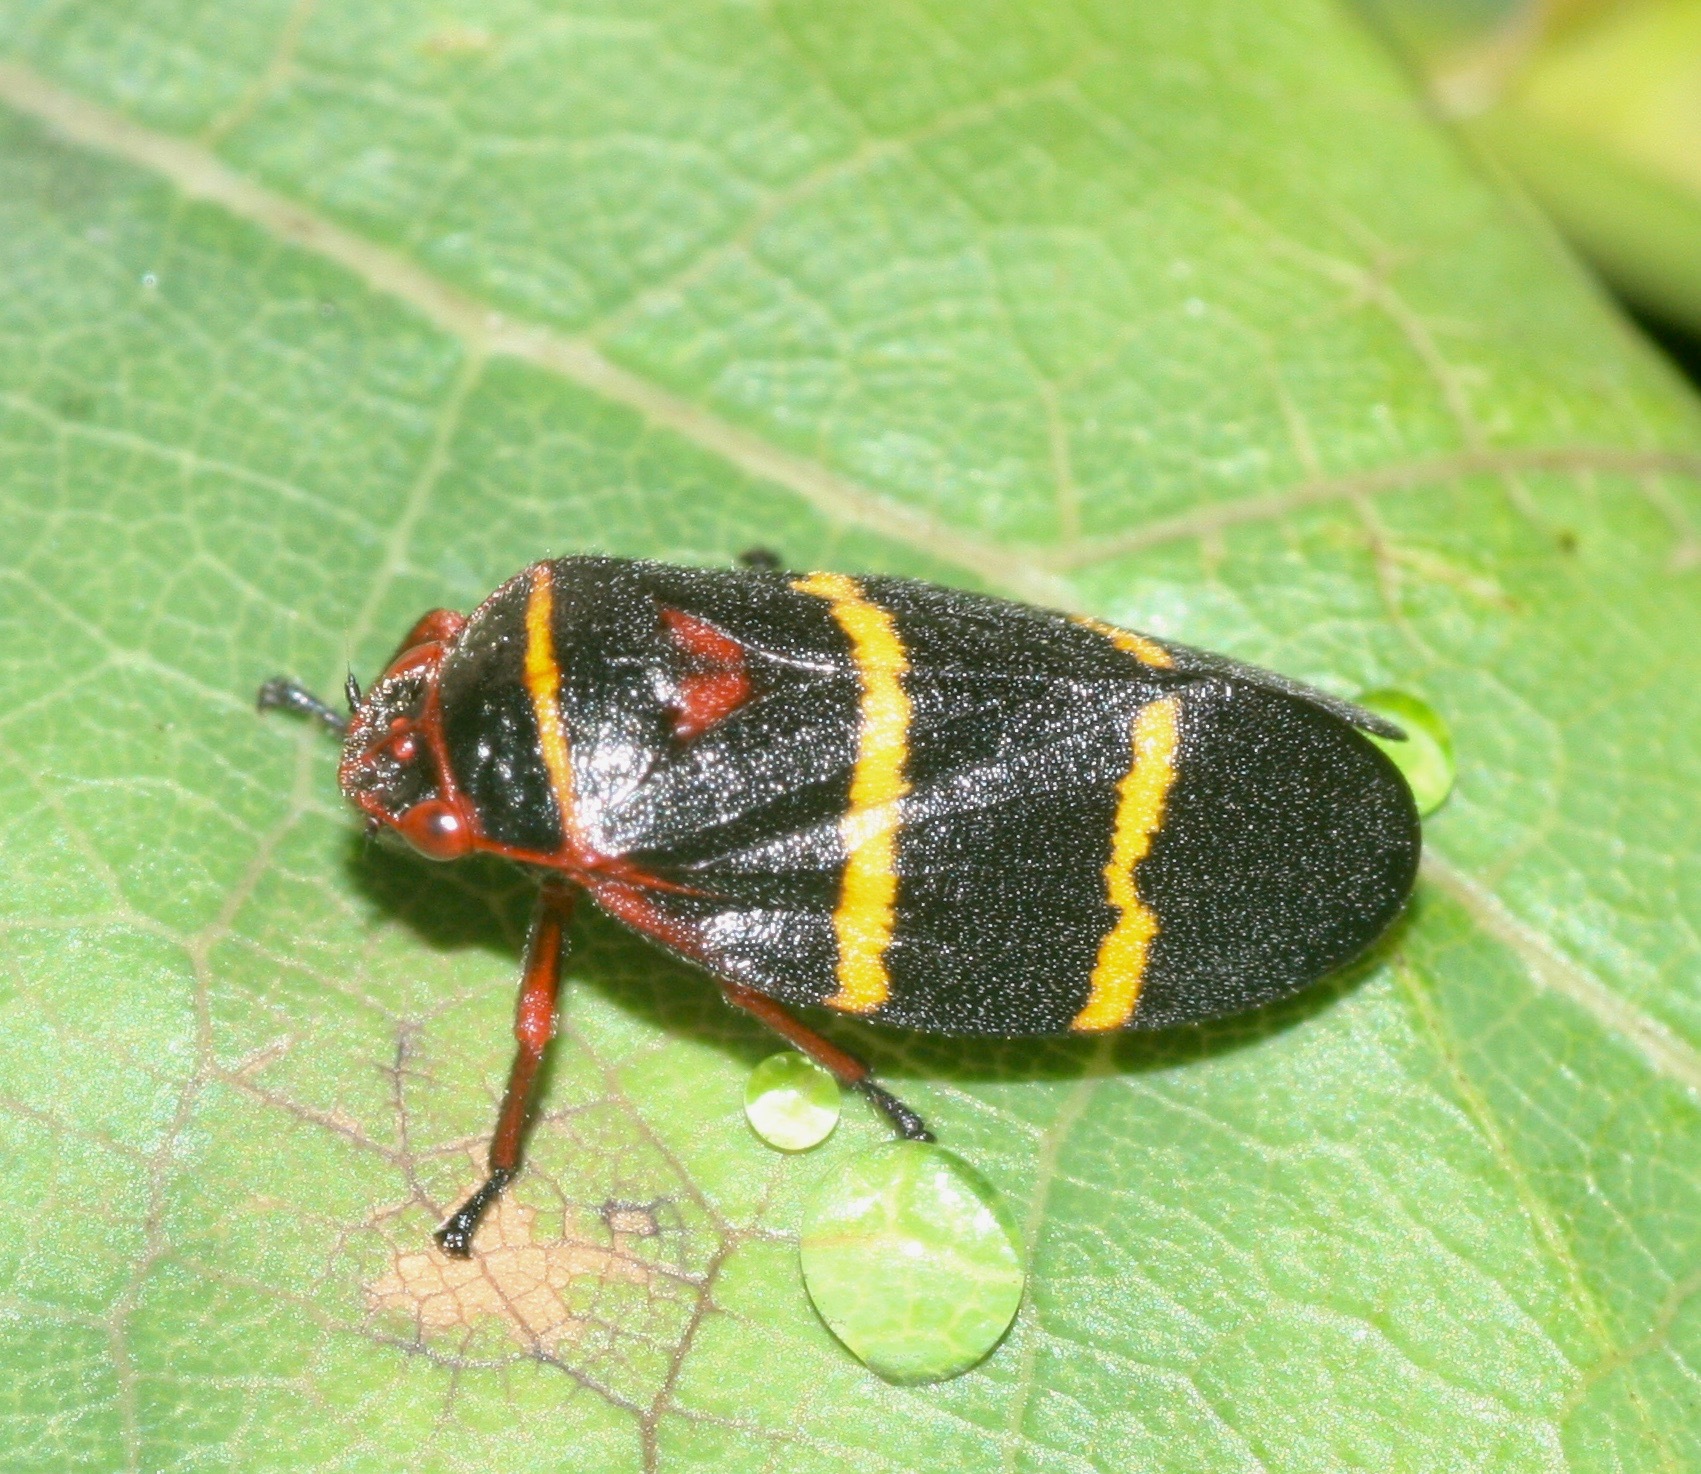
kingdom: Animalia
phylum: Arthropoda
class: Insecta
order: Hemiptera
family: Cercopidae
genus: Prosapia
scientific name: Prosapia bicincta
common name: Twolined spittlebug
